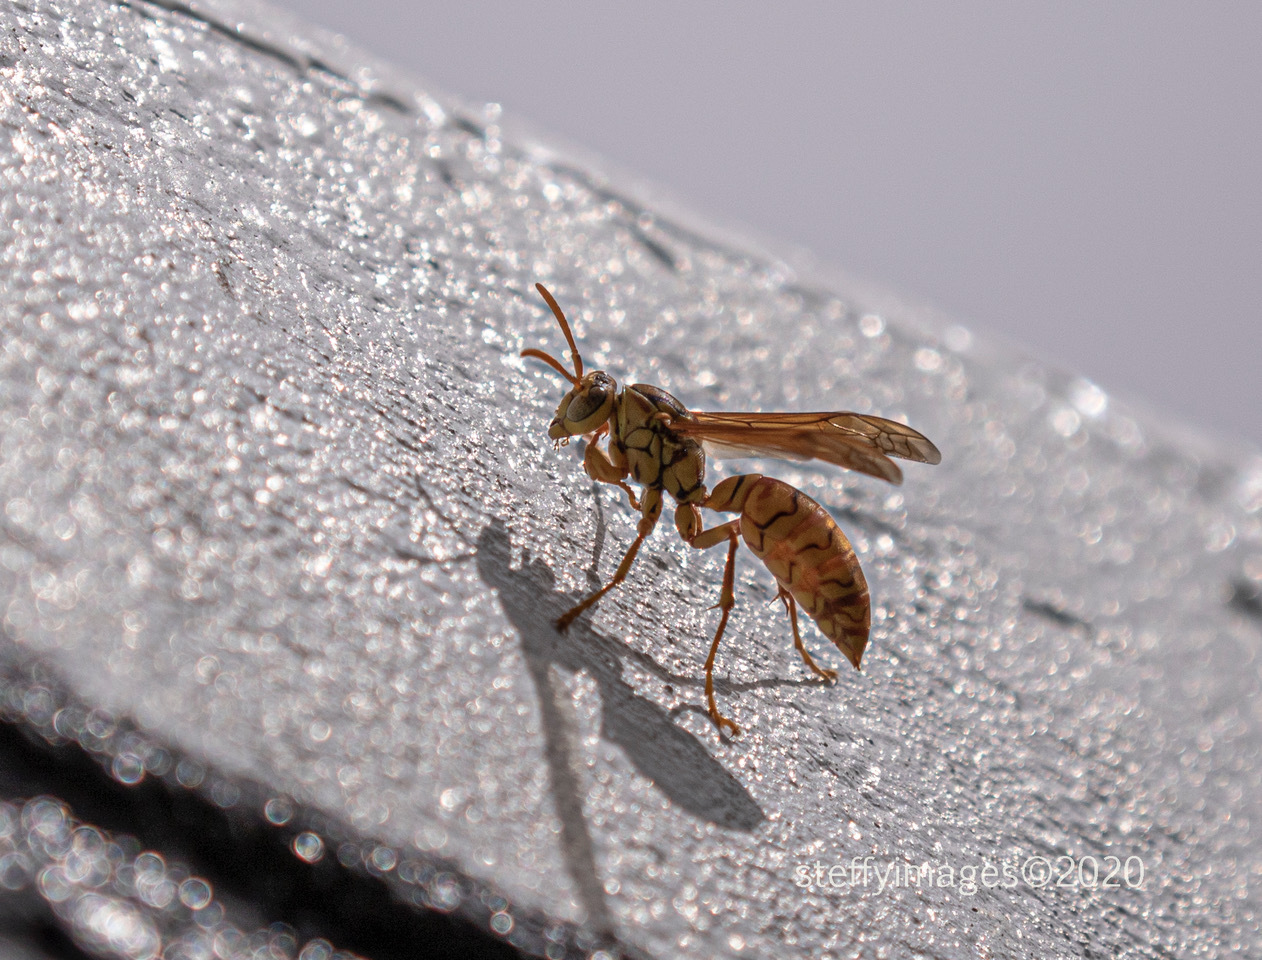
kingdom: Animalia
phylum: Arthropoda
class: Insecta
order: Hymenoptera
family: Eumenidae
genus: Polistes
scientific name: Polistes olivaceus
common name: Paper wasp
